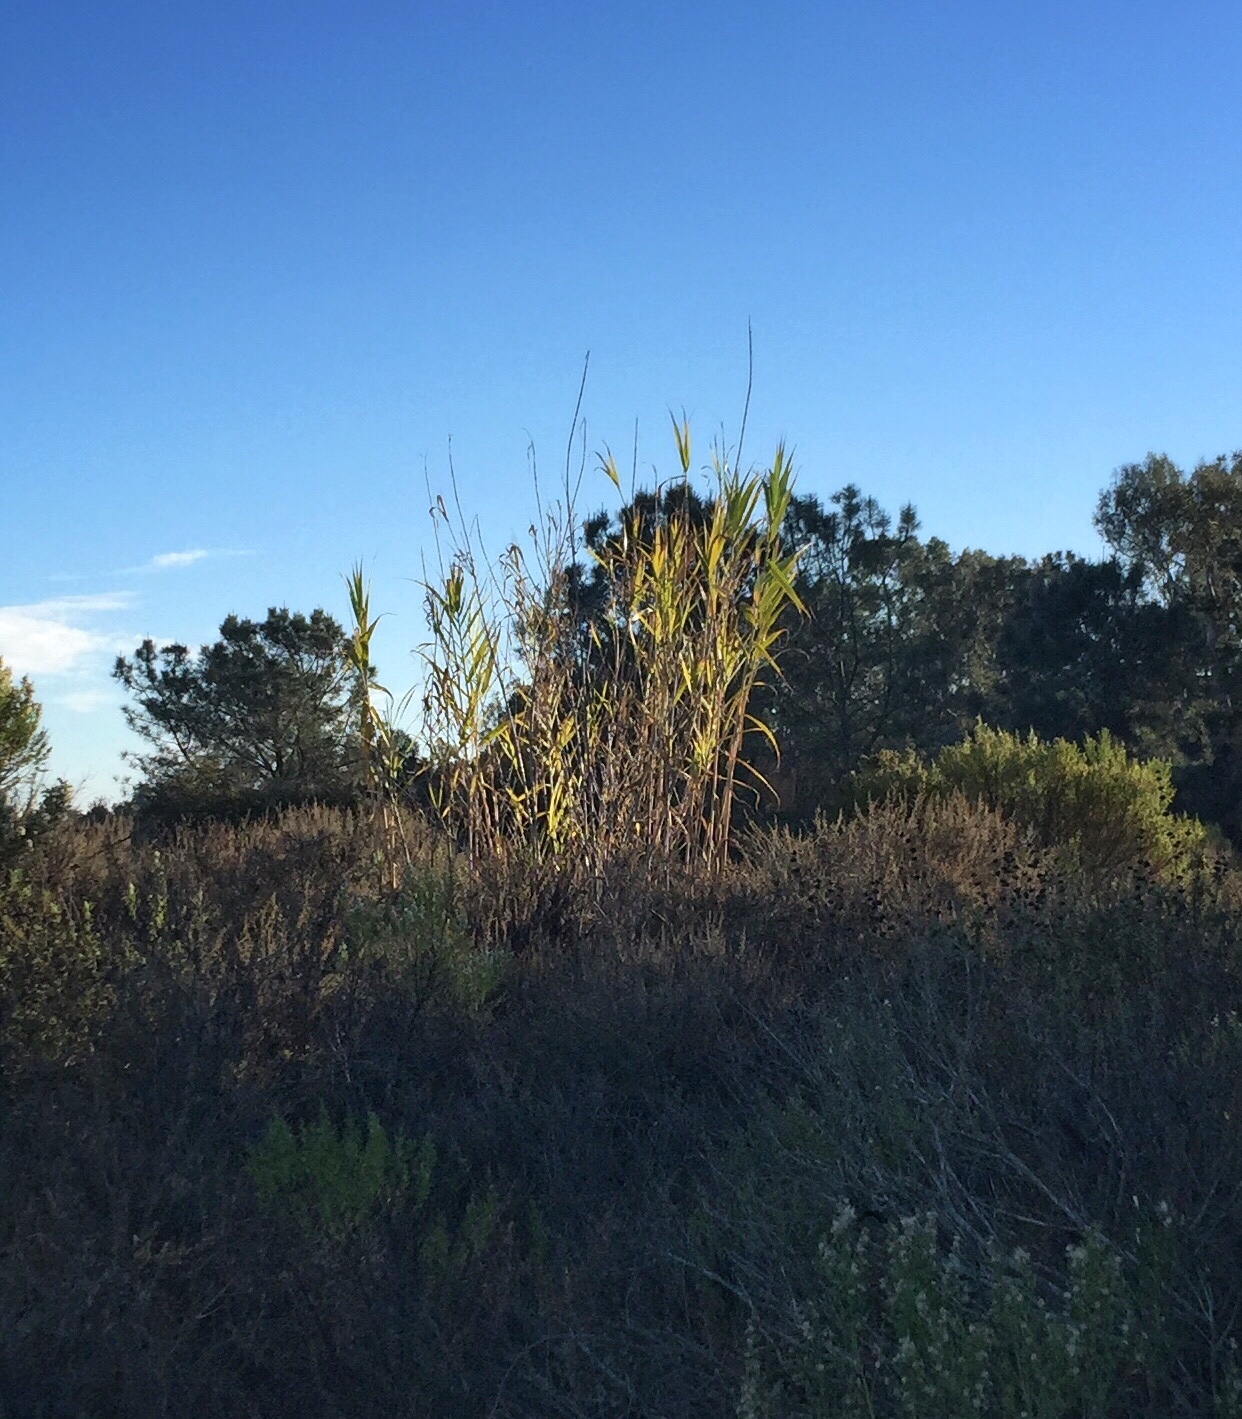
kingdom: Plantae
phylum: Tracheophyta
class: Liliopsida
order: Poales
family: Poaceae
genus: Arundo
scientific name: Arundo donax
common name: Giant reed
